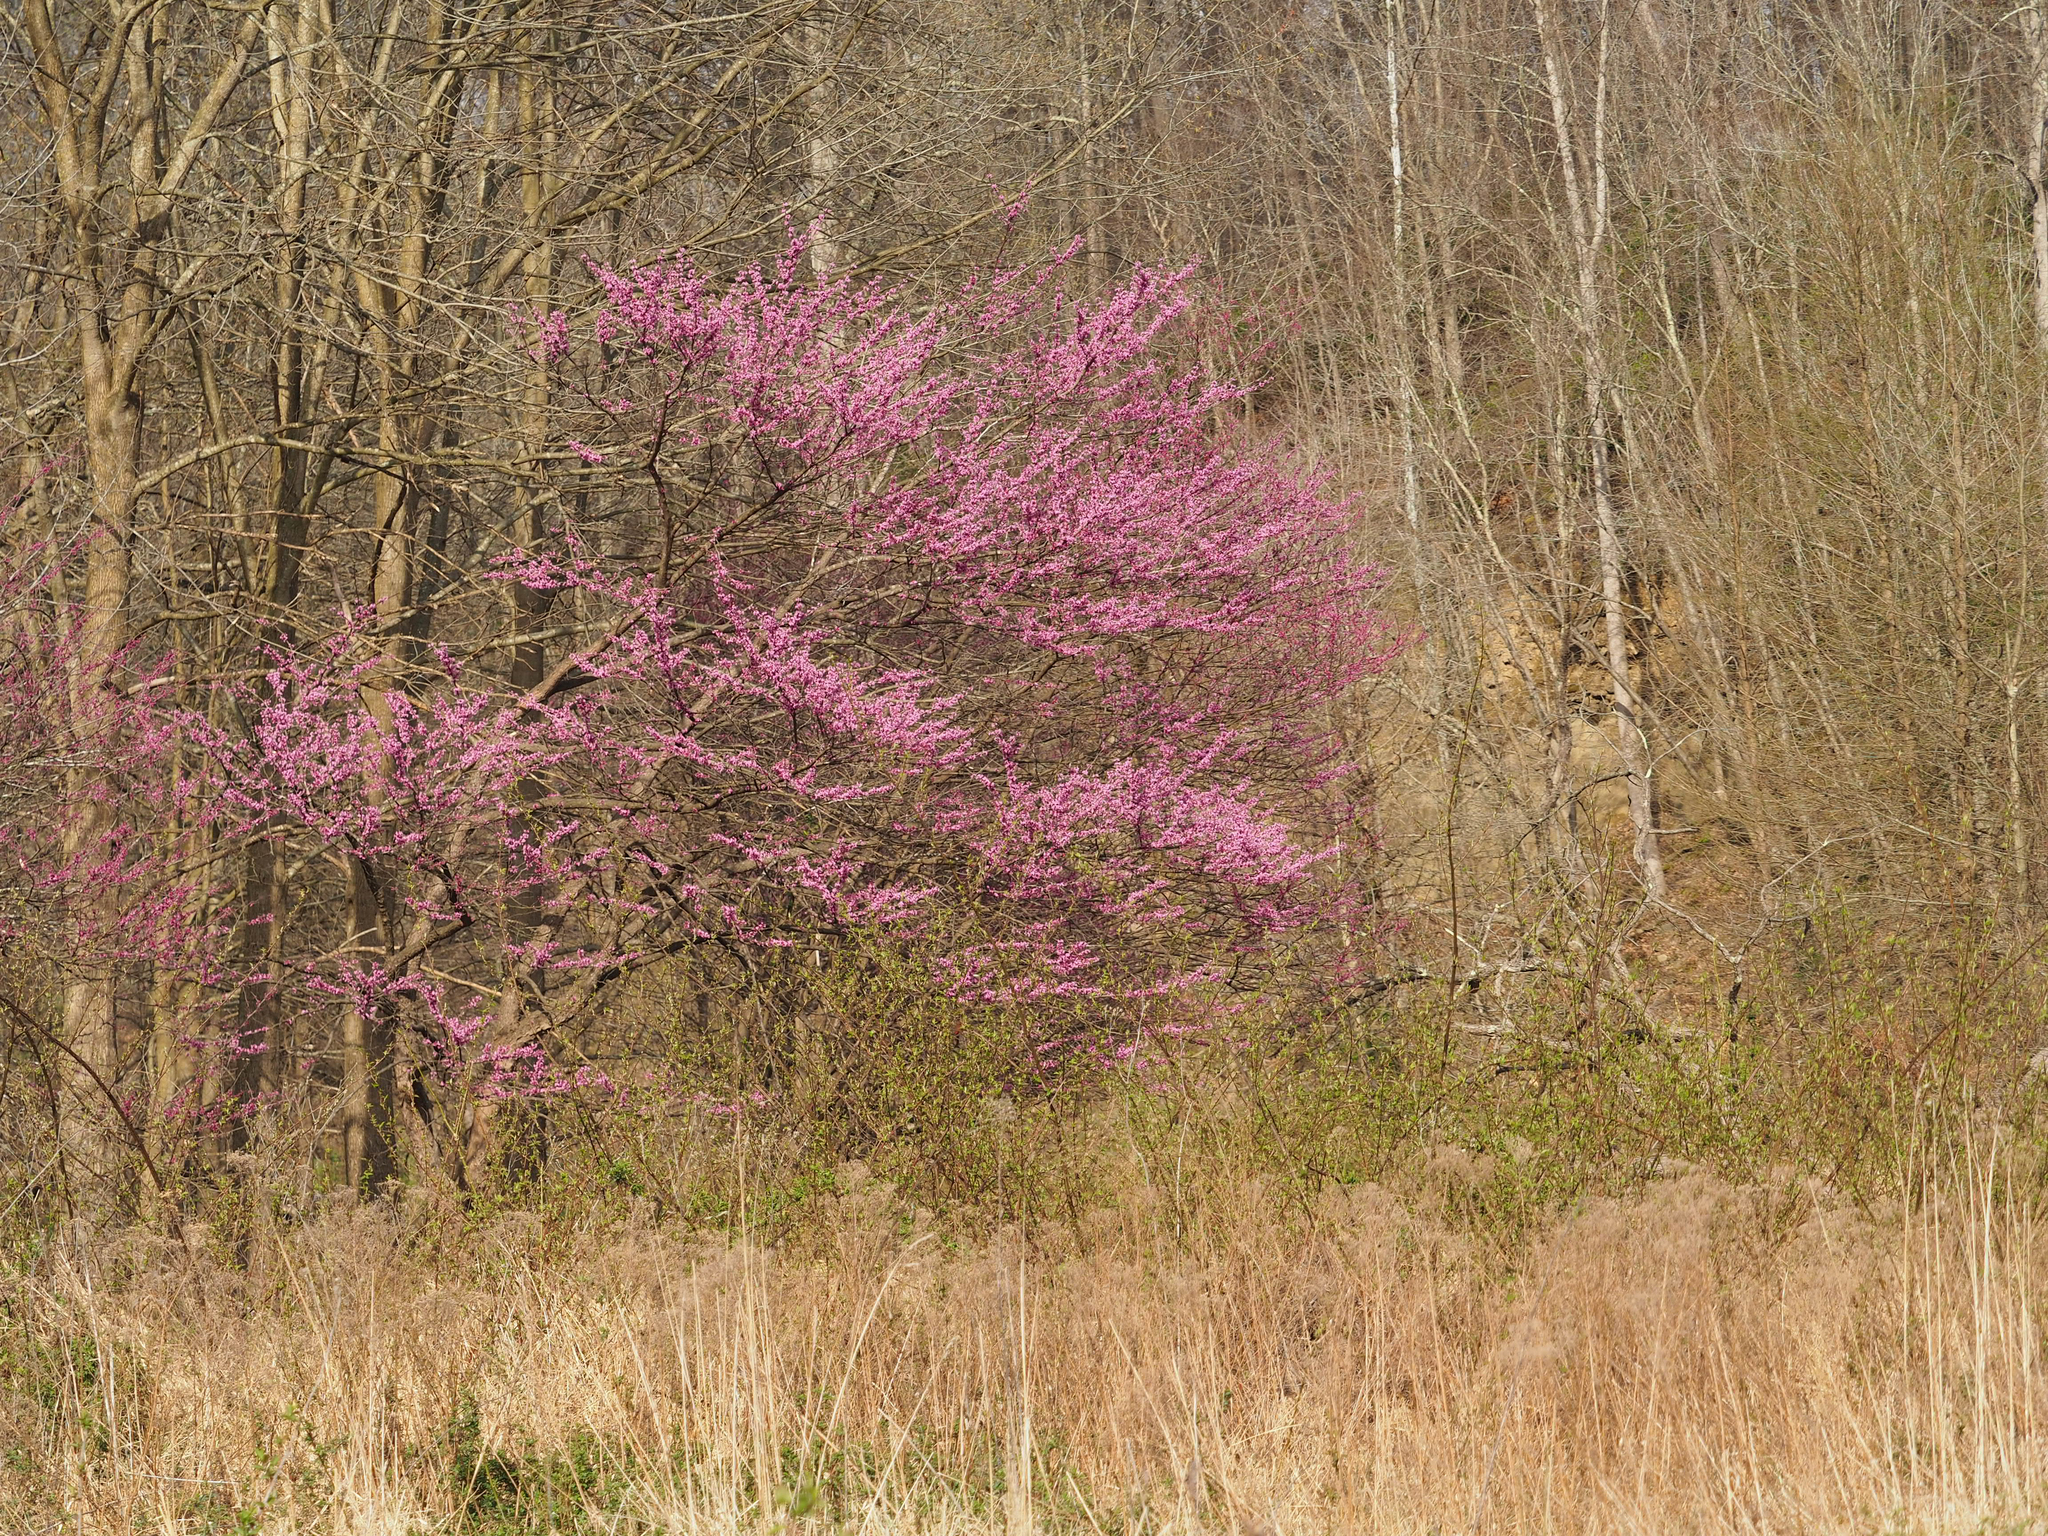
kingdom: Plantae
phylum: Tracheophyta
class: Magnoliopsida
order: Fabales
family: Fabaceae
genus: Cercis
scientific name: Cercis canadensis
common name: Eastern redbud
